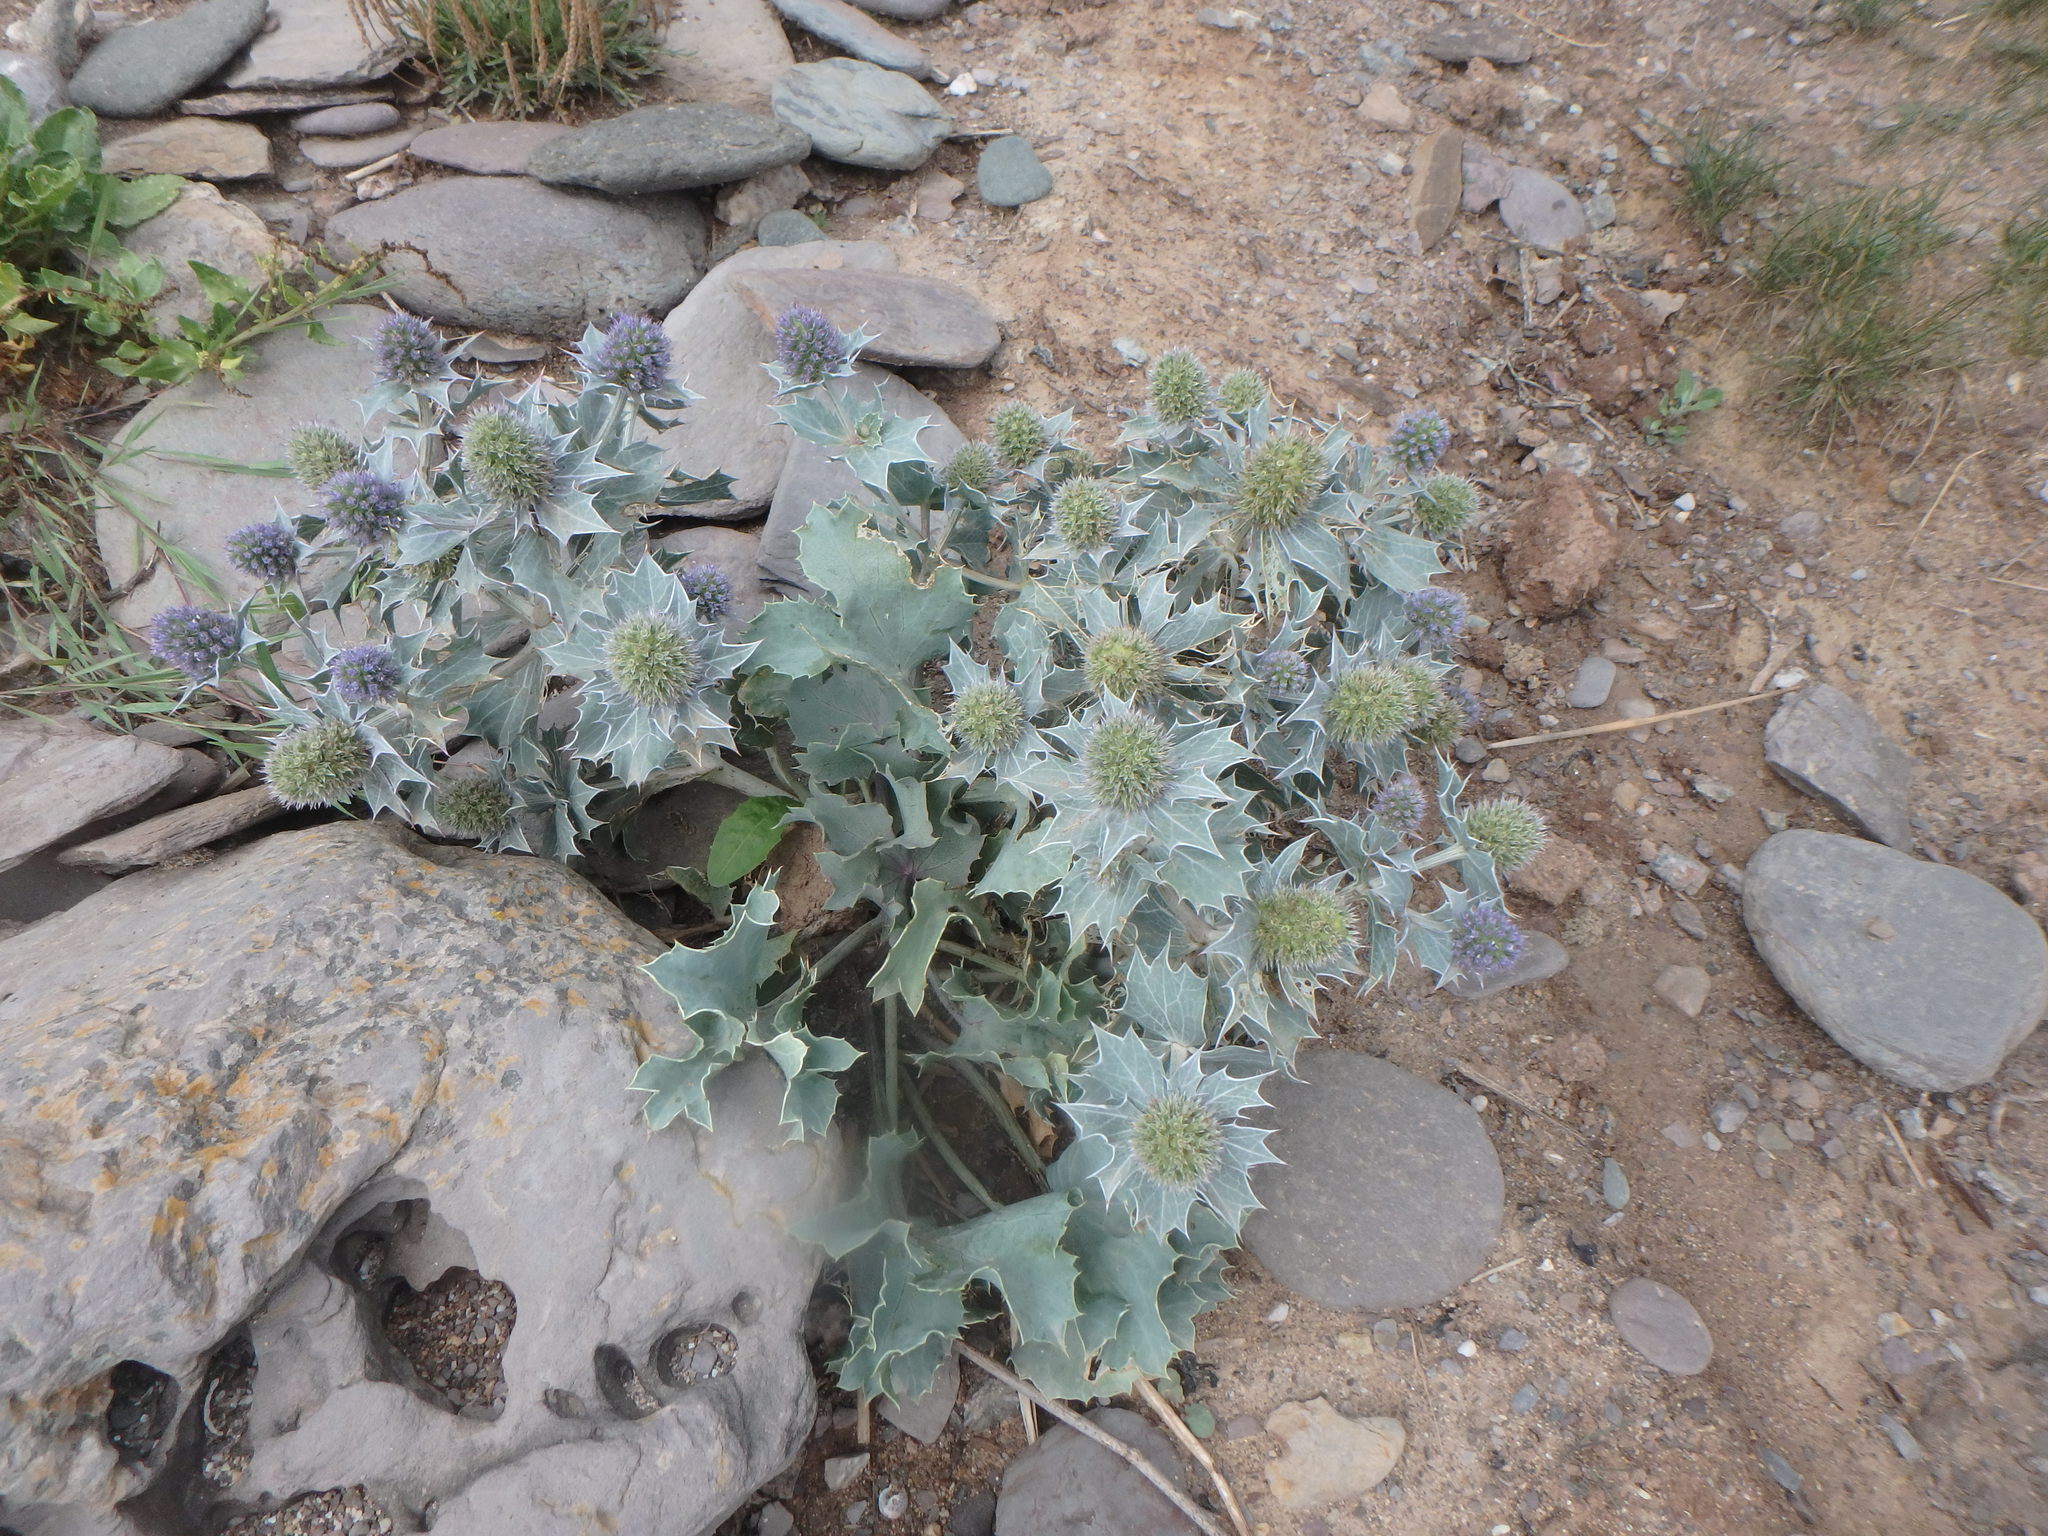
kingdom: Plantae
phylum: Tracheophyta
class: Magnoliopsida
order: Apiales
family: Apiaceae
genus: Eryngium
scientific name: Eryngium maritimum
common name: Sea-holly
